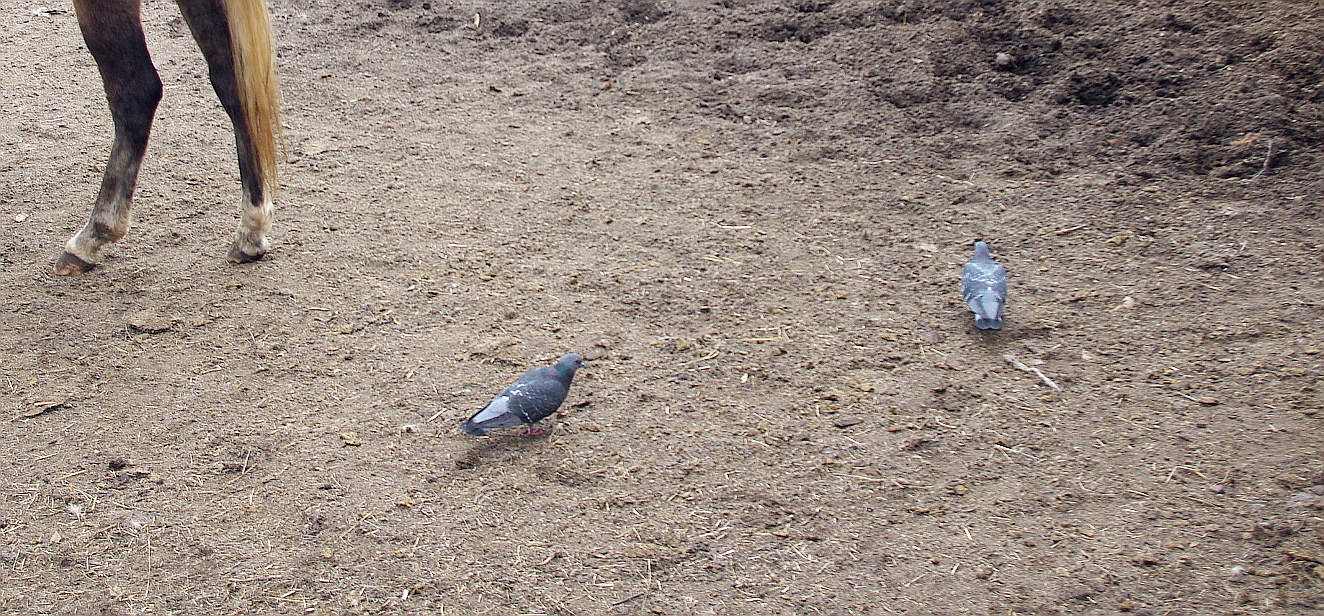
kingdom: Animalia
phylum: Chordata
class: Aves
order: Columbiformes
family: Columbidae
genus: Columba
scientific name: Columba livia
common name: Rock pigeon
